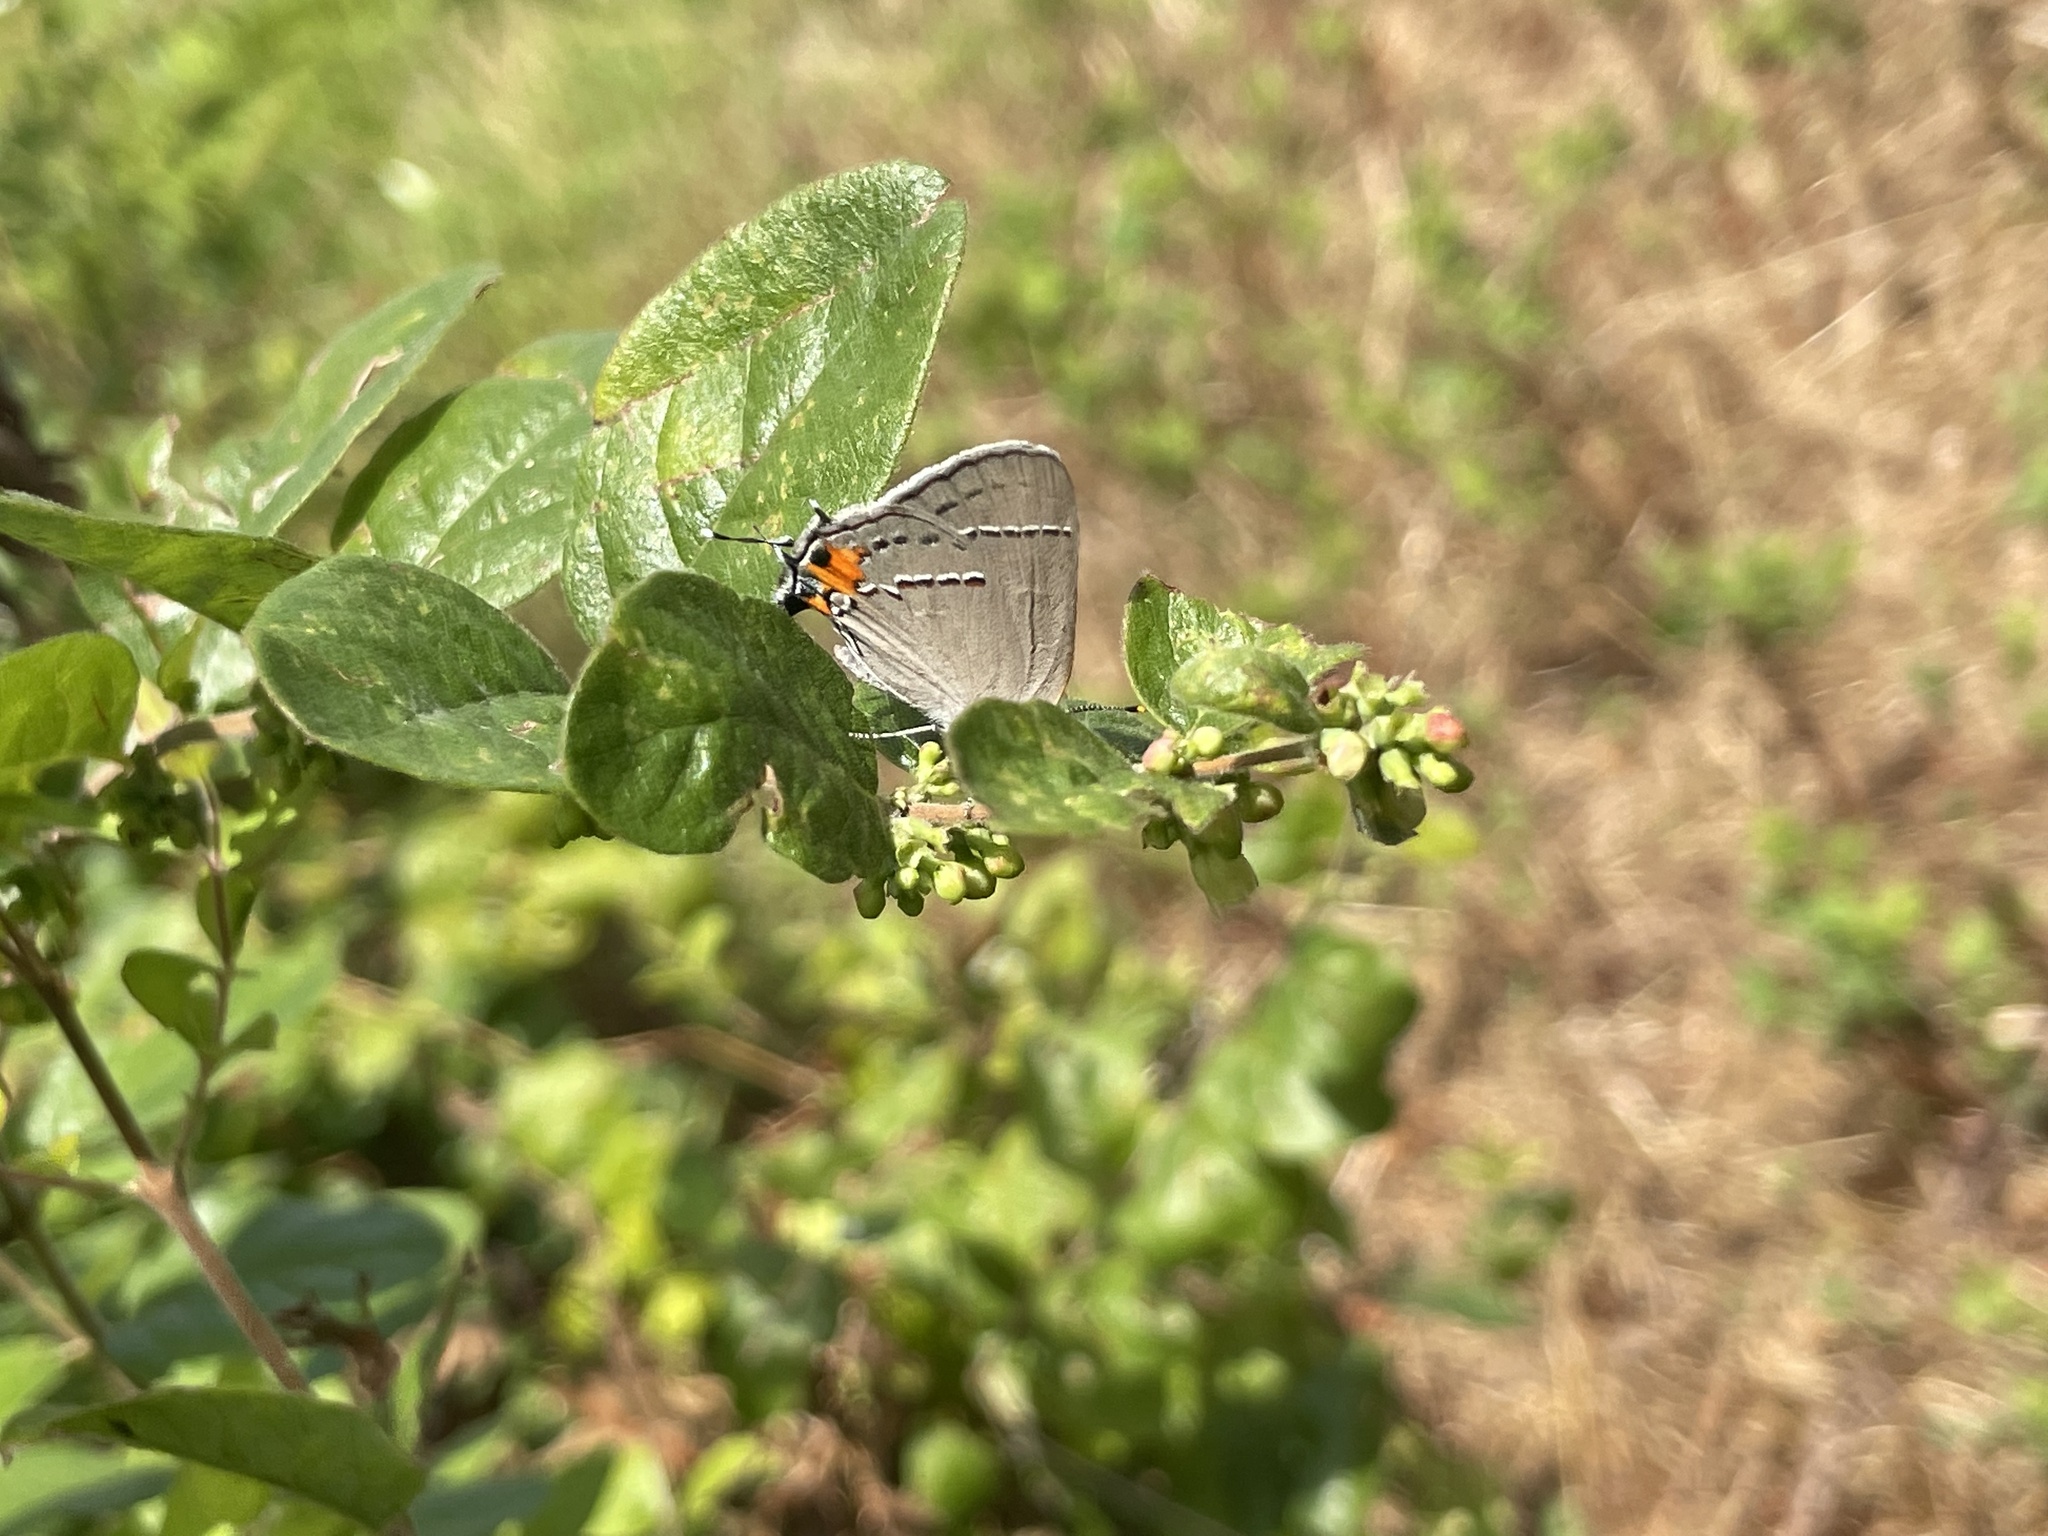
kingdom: Animalia
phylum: Arthropoda
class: Insecta
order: Lepidoptera
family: Lycaenidae
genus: Strymon
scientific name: Strymon melinus
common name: Gray hairstreak
